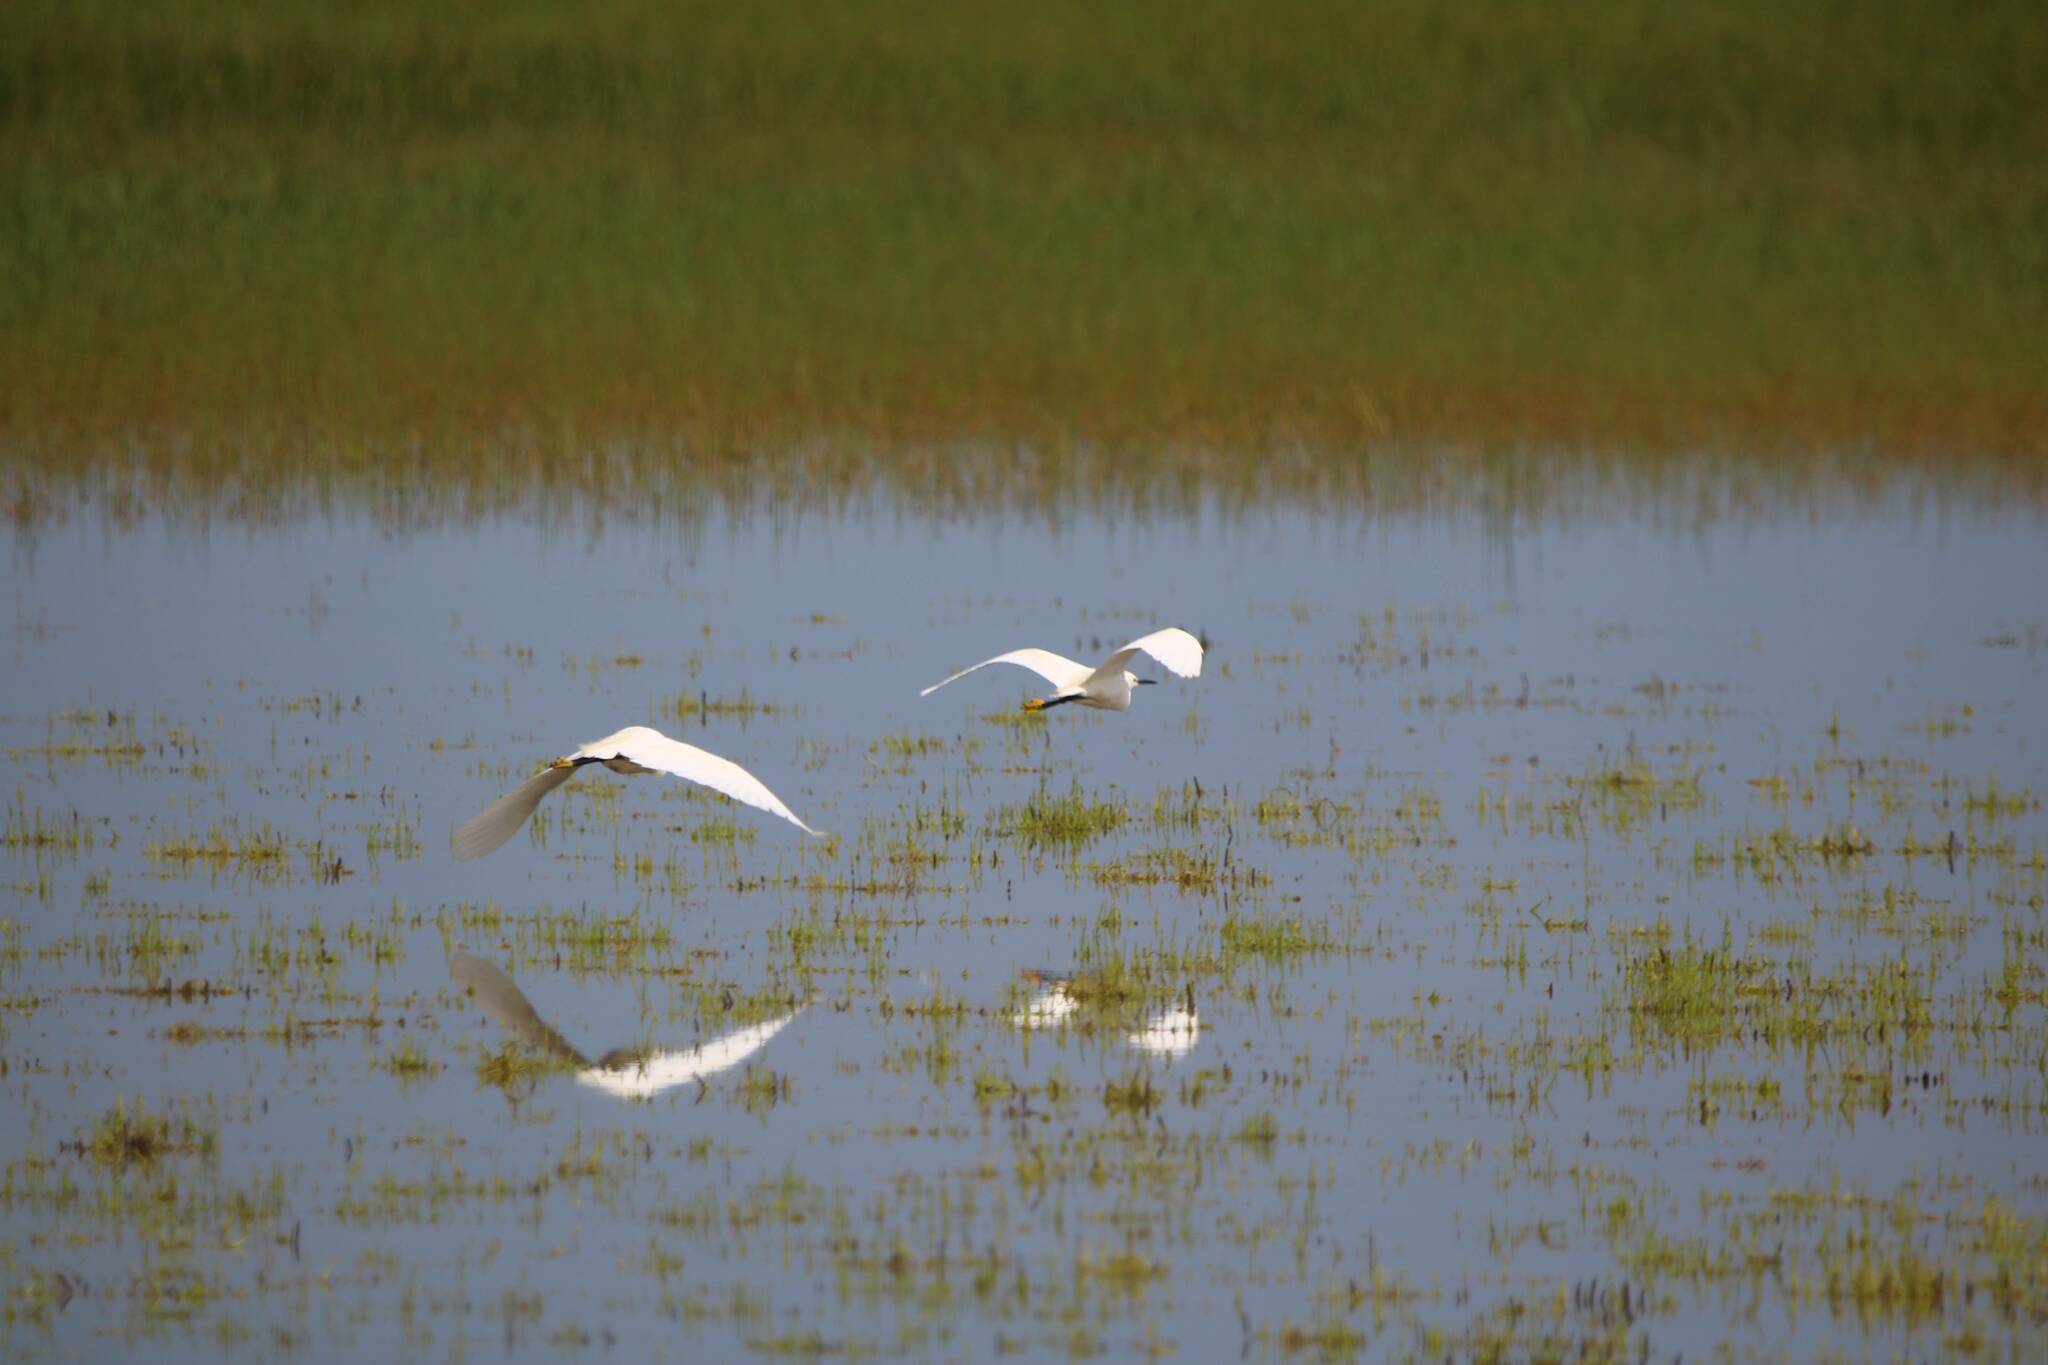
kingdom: Animalia
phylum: Chordata
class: Aves
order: Pelecaniformes
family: Ardeidae
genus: Egretta
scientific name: Egretta garzetta
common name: Little egret
